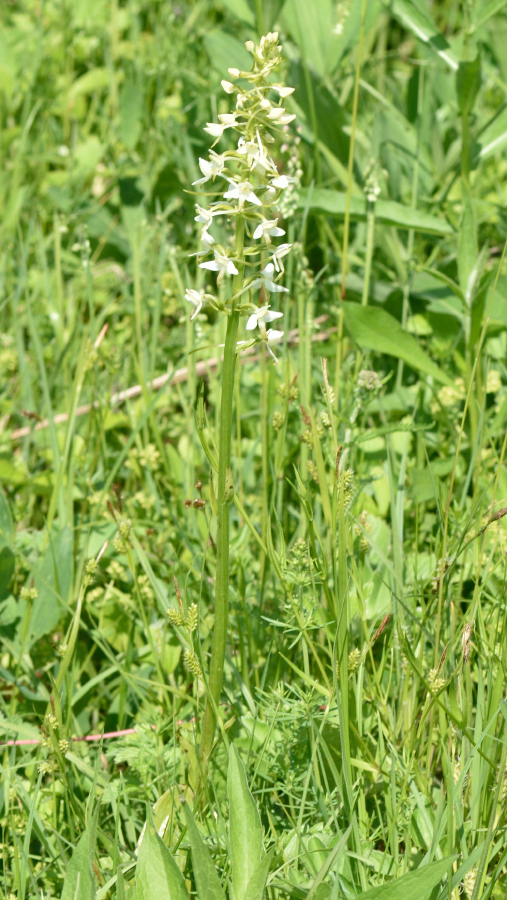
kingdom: Plantae
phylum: Tracheophyta
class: Liliopsida
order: Asparagales
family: Orchidaceae
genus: Platanthera
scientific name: Platanthera bifolia
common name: Lesser butterfly-orchid
